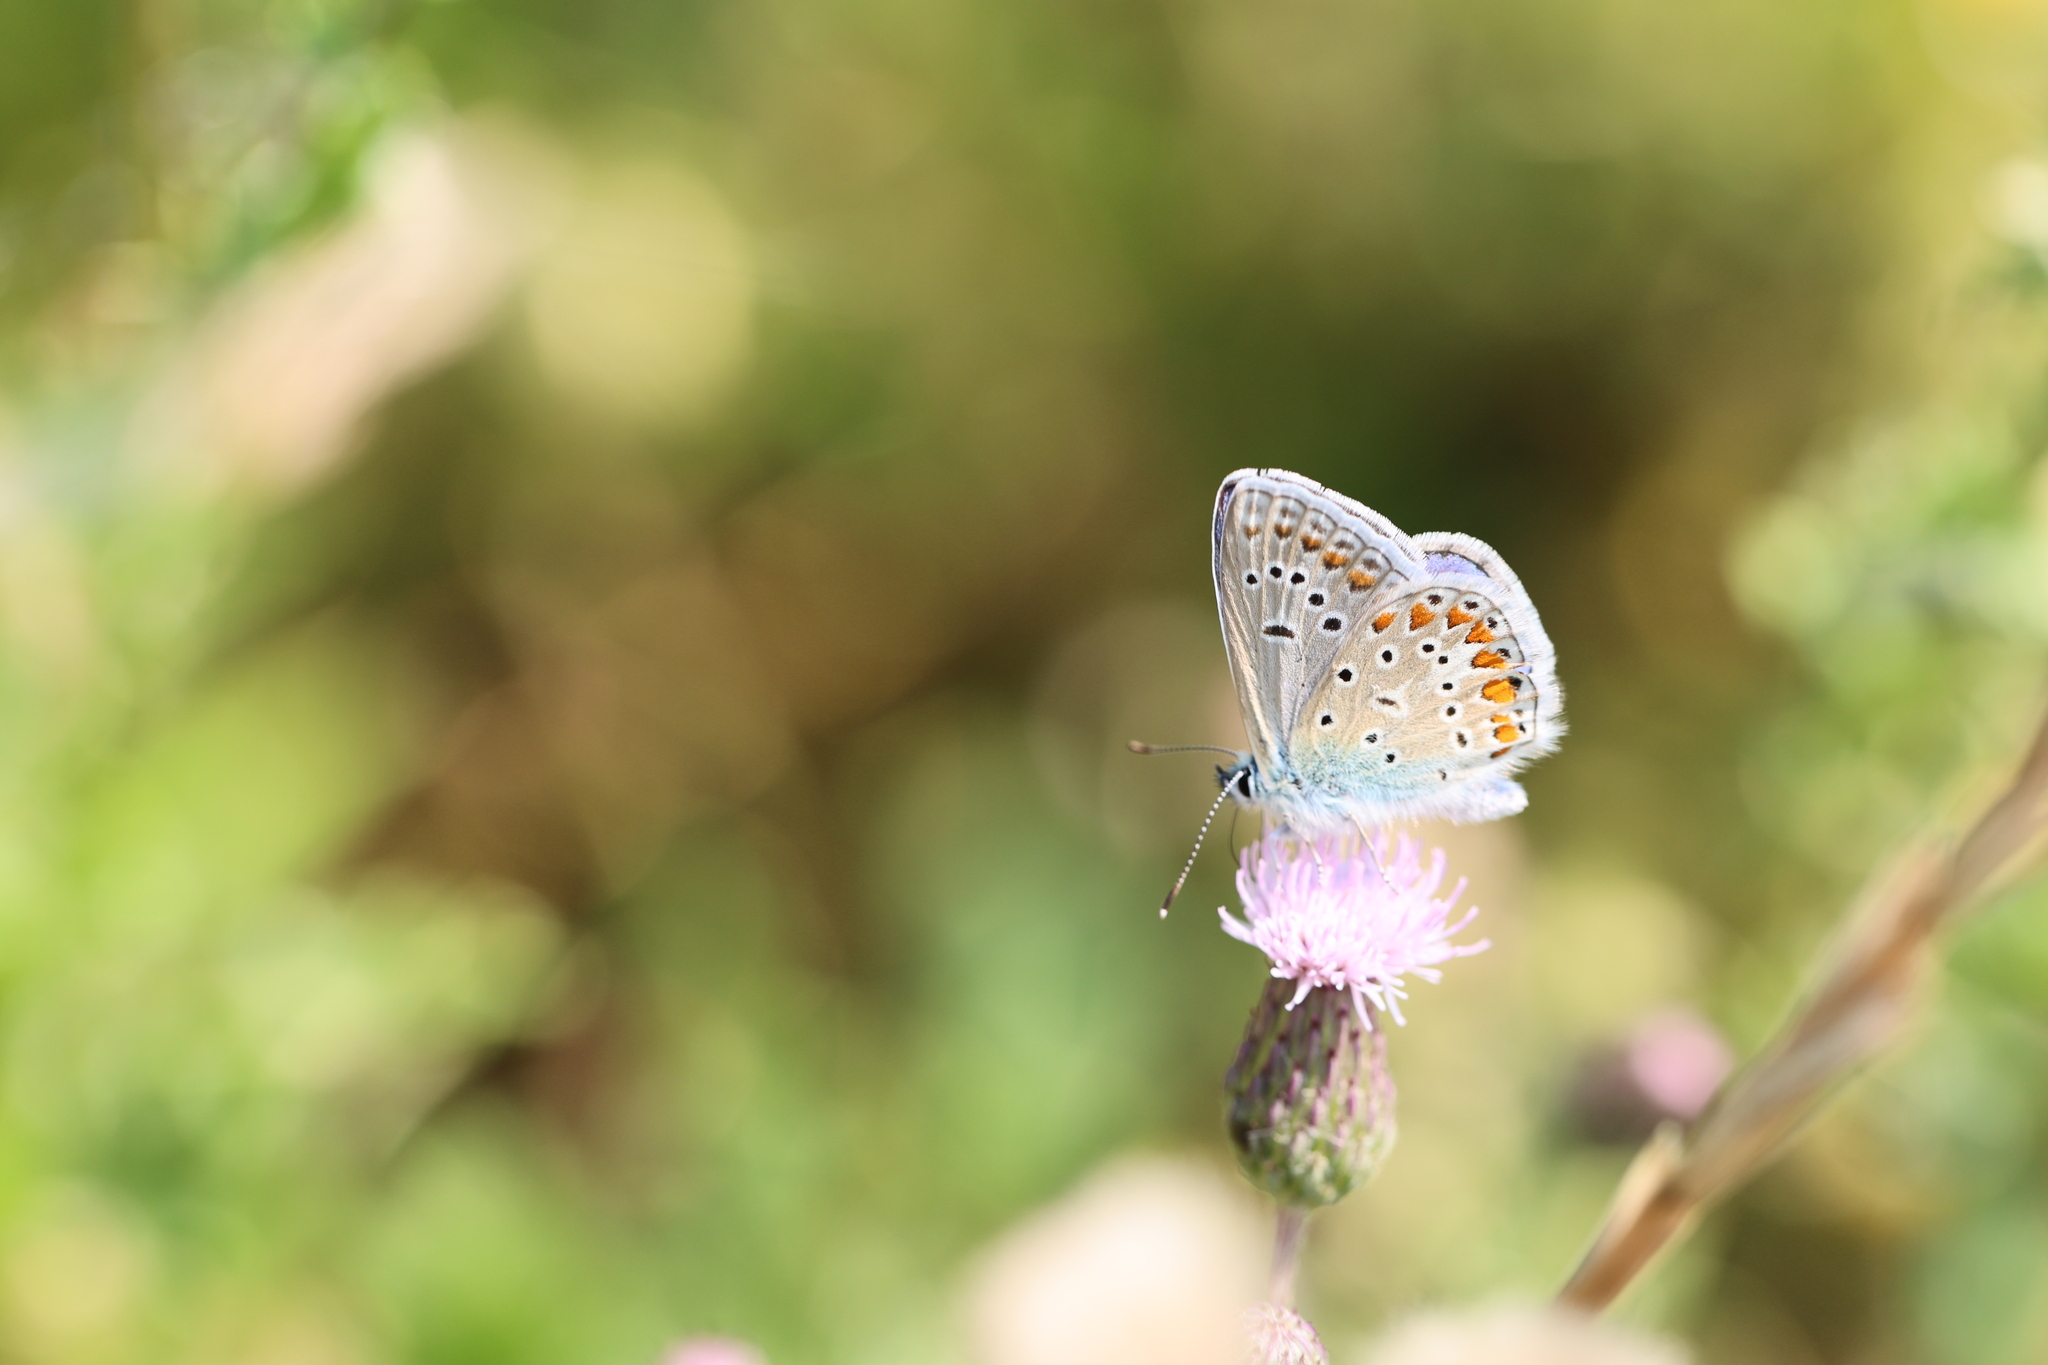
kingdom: Animalia
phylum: Arthropoda
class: Insecta
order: Lepidoptera
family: Lycaenidae
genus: Polyommatus
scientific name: Polyommatus icarus
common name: Common blue
